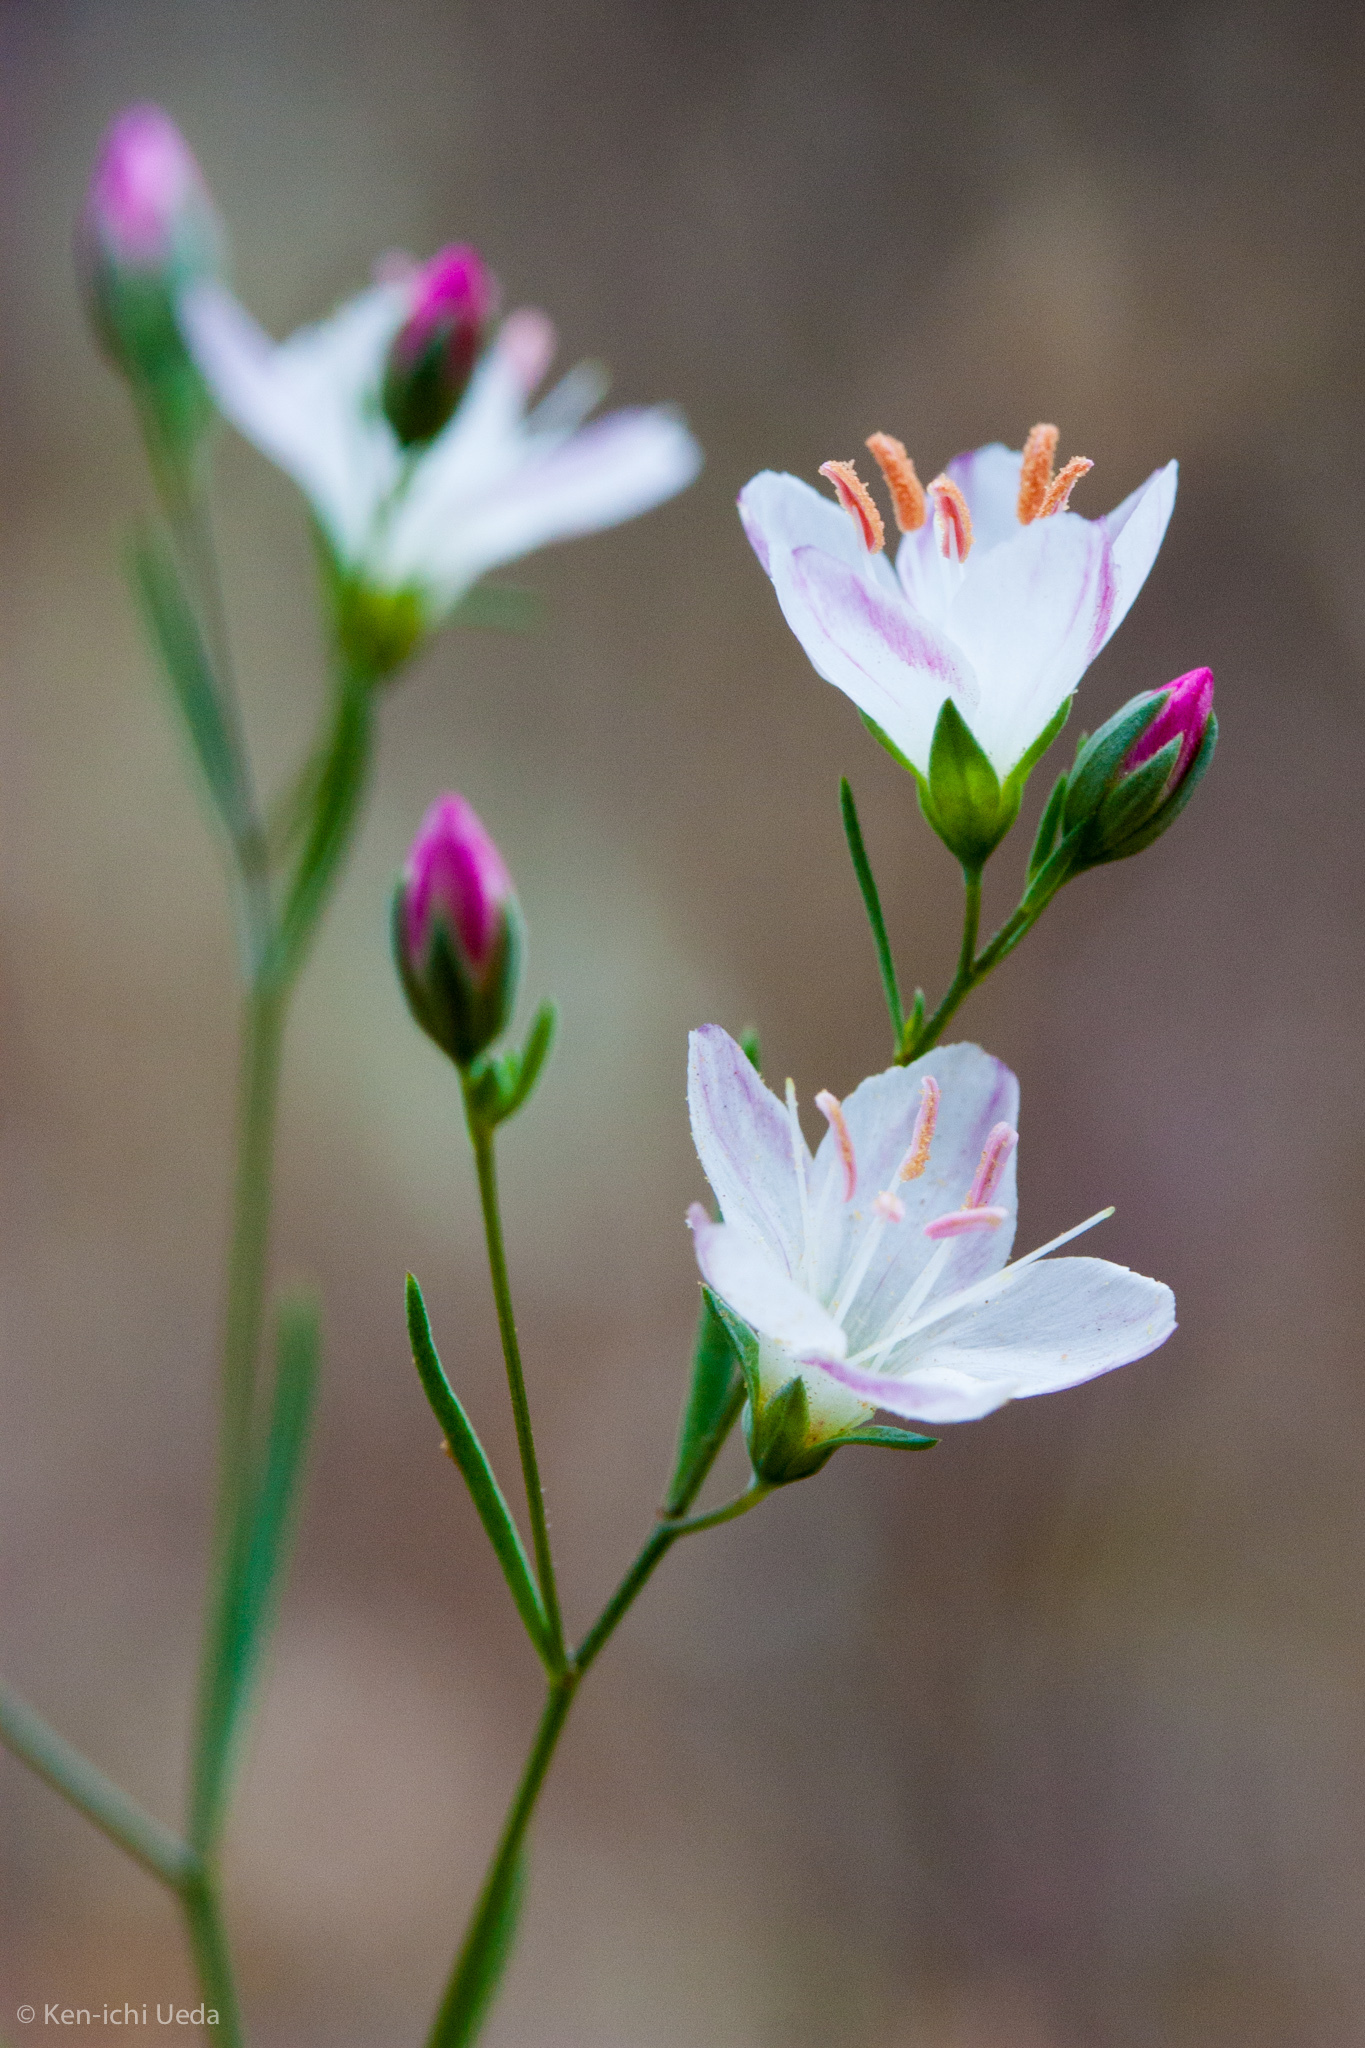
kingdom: Plantae
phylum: Tracheophyta
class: Magnoliopsida
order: Malpighiales
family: Linaceae
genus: Hesperolinon
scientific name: Hesperolinon californicum
